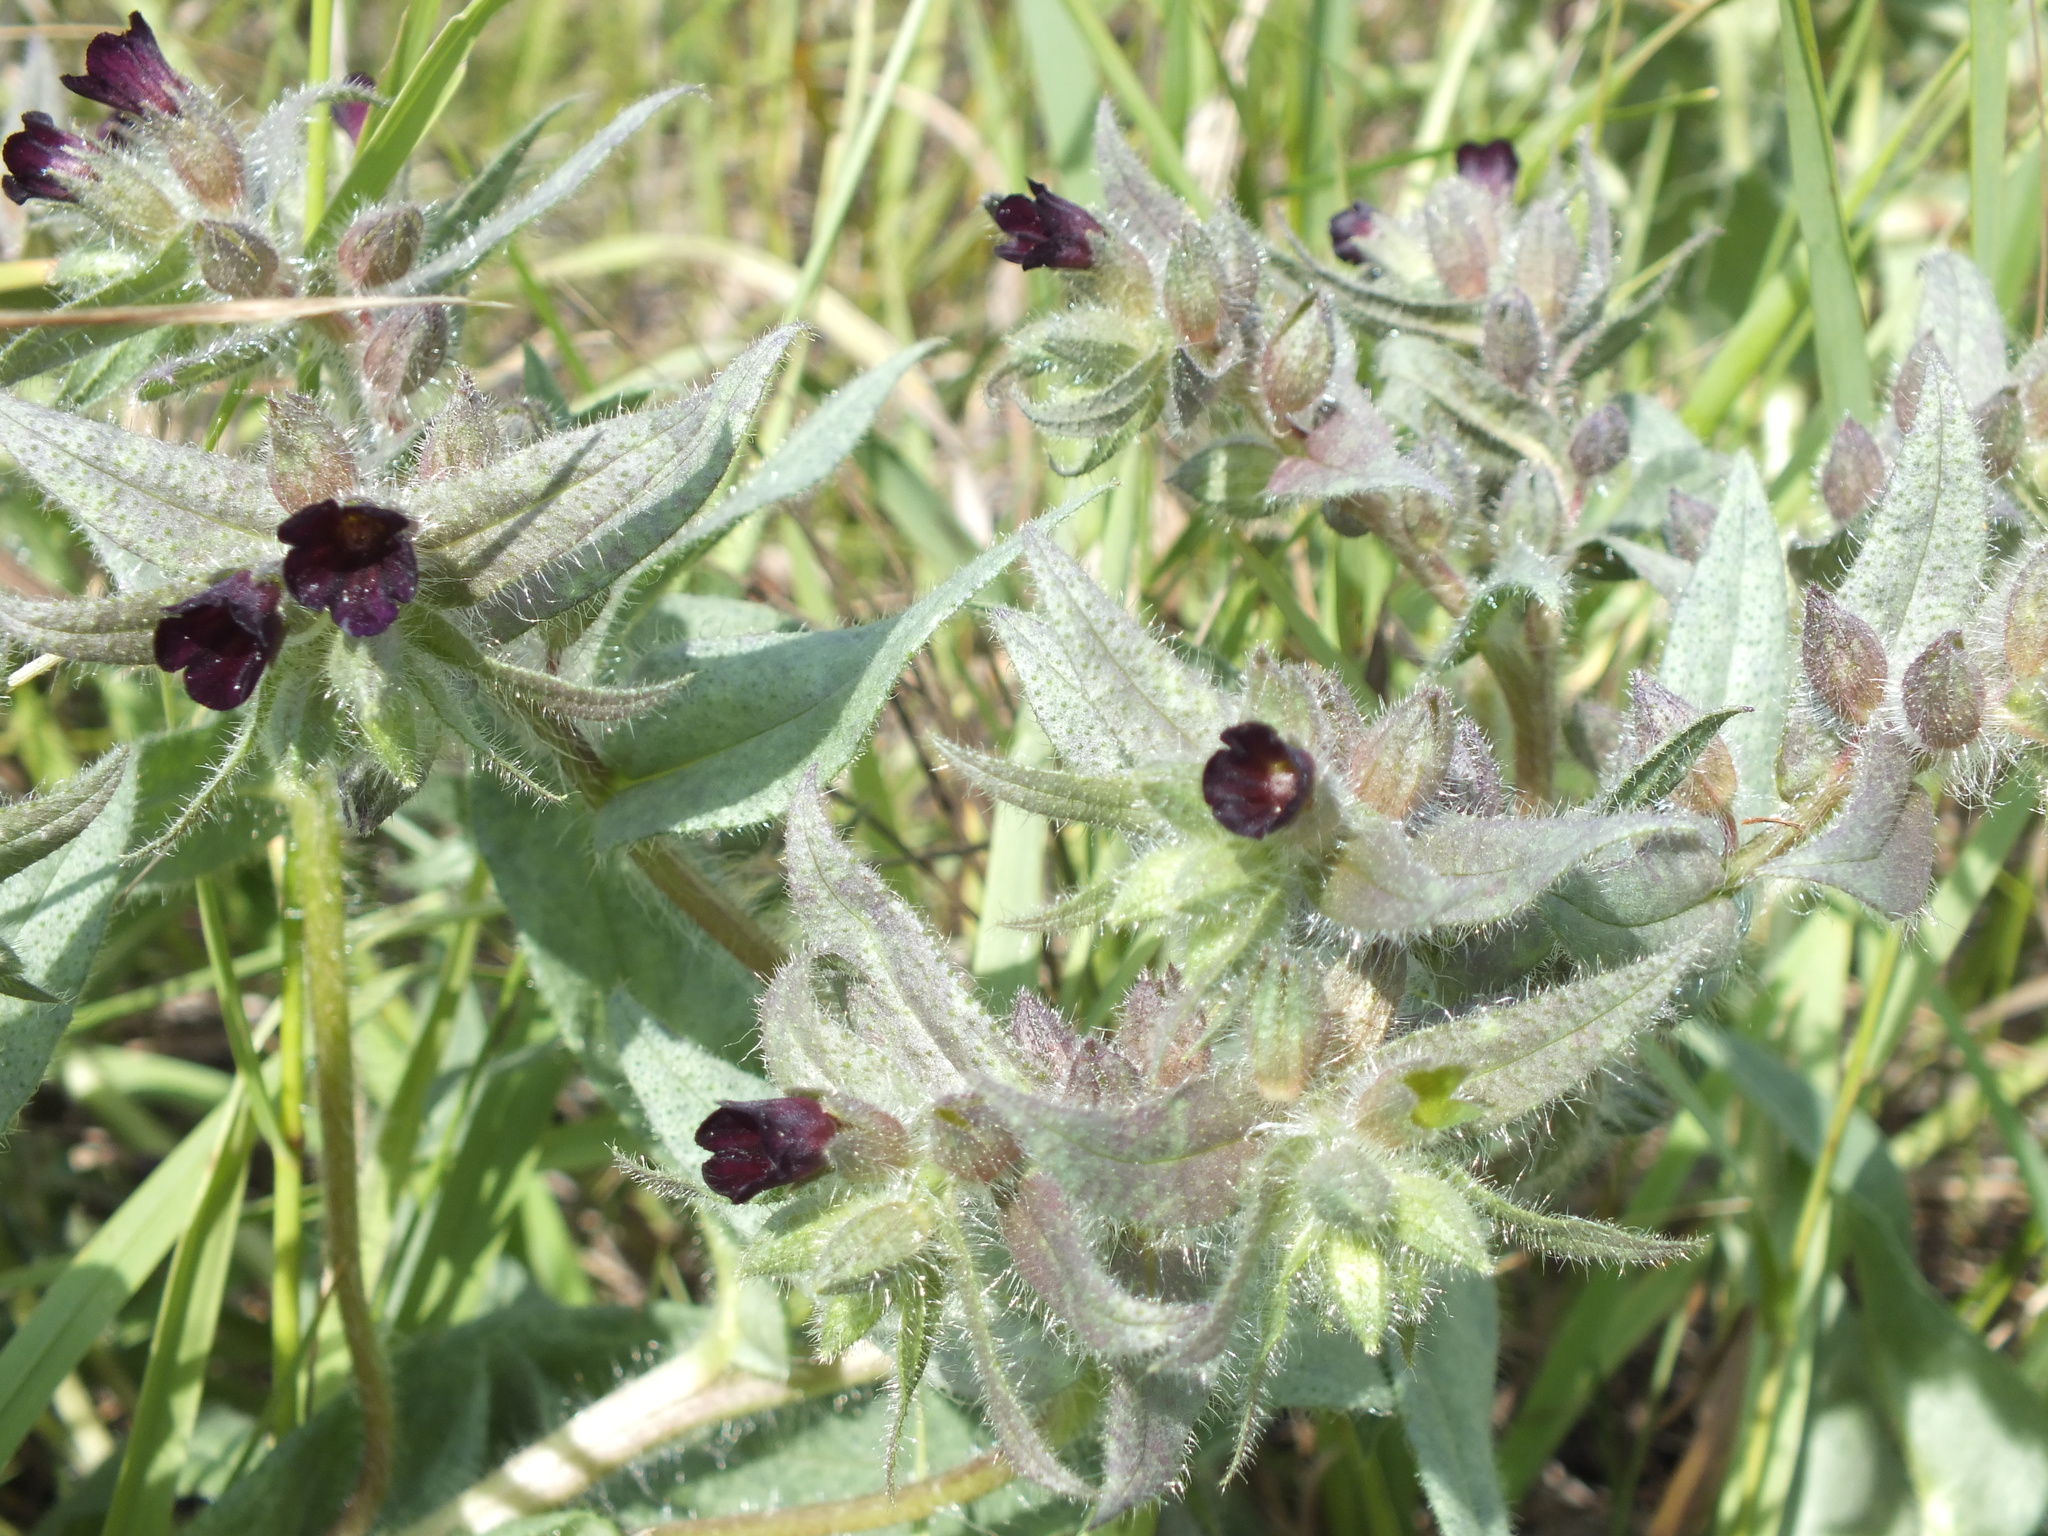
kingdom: Plantae
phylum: Tracheophyta
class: Magnoliopsida
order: Boraginales
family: Boraginaceae
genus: Nonea
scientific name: Nonea pulla
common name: Brown nonea
